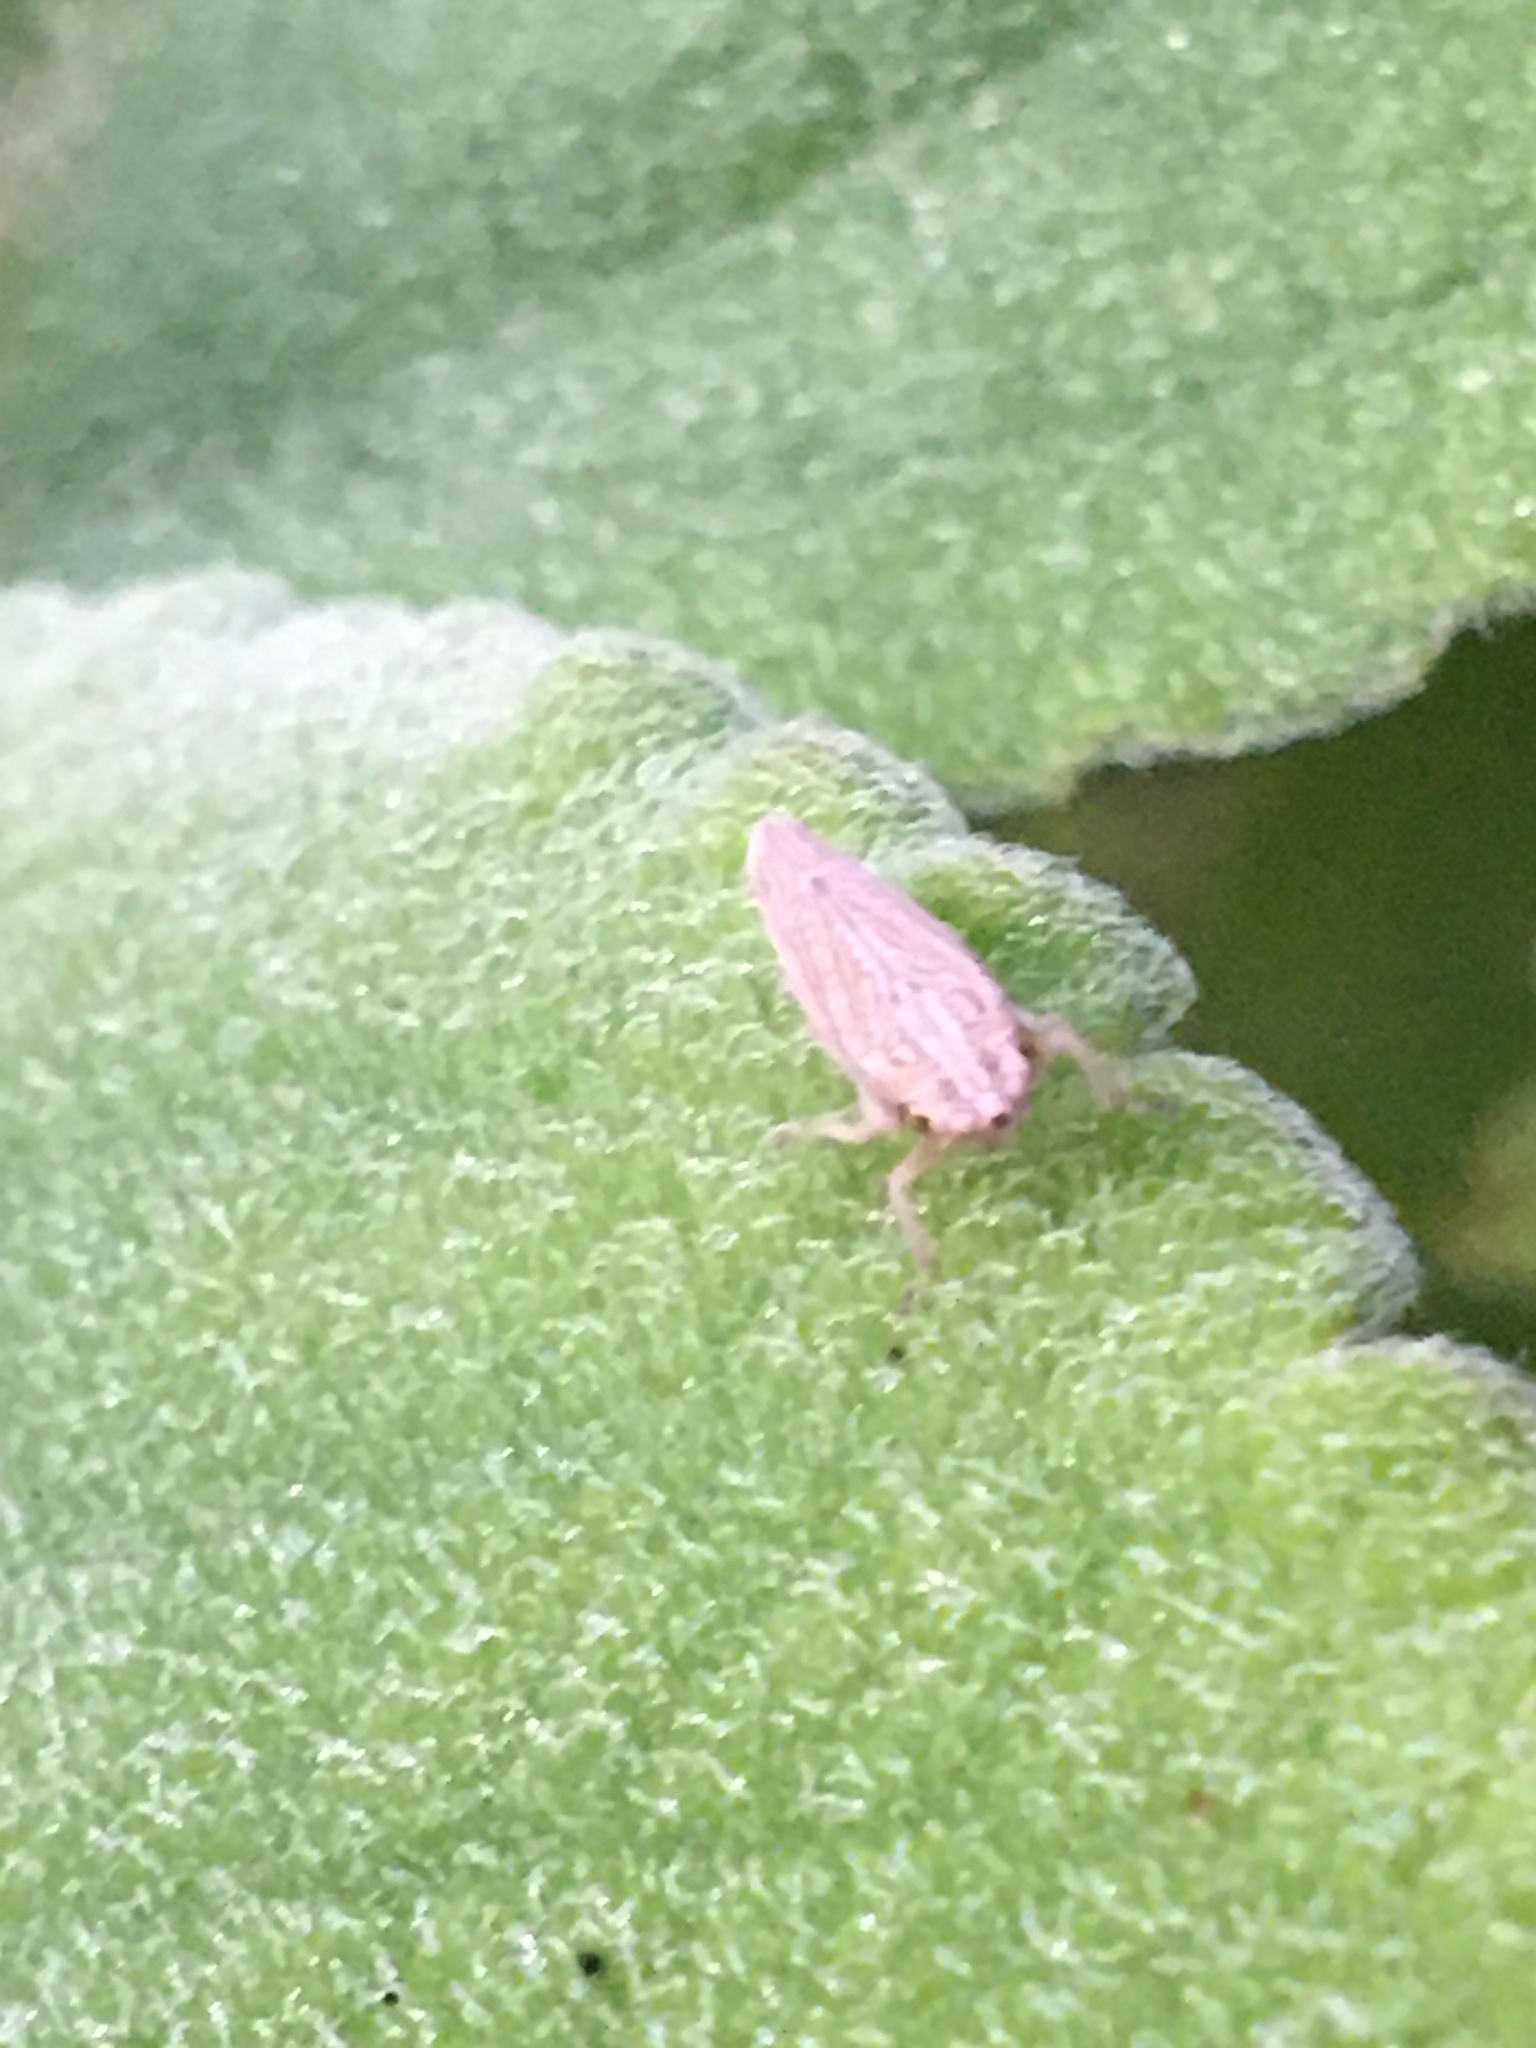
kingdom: Animalia
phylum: Arthropoda
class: Insecta
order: Hemiptera
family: Cicadellidae
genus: Neokolla
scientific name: Neokolla hieroglyphica
